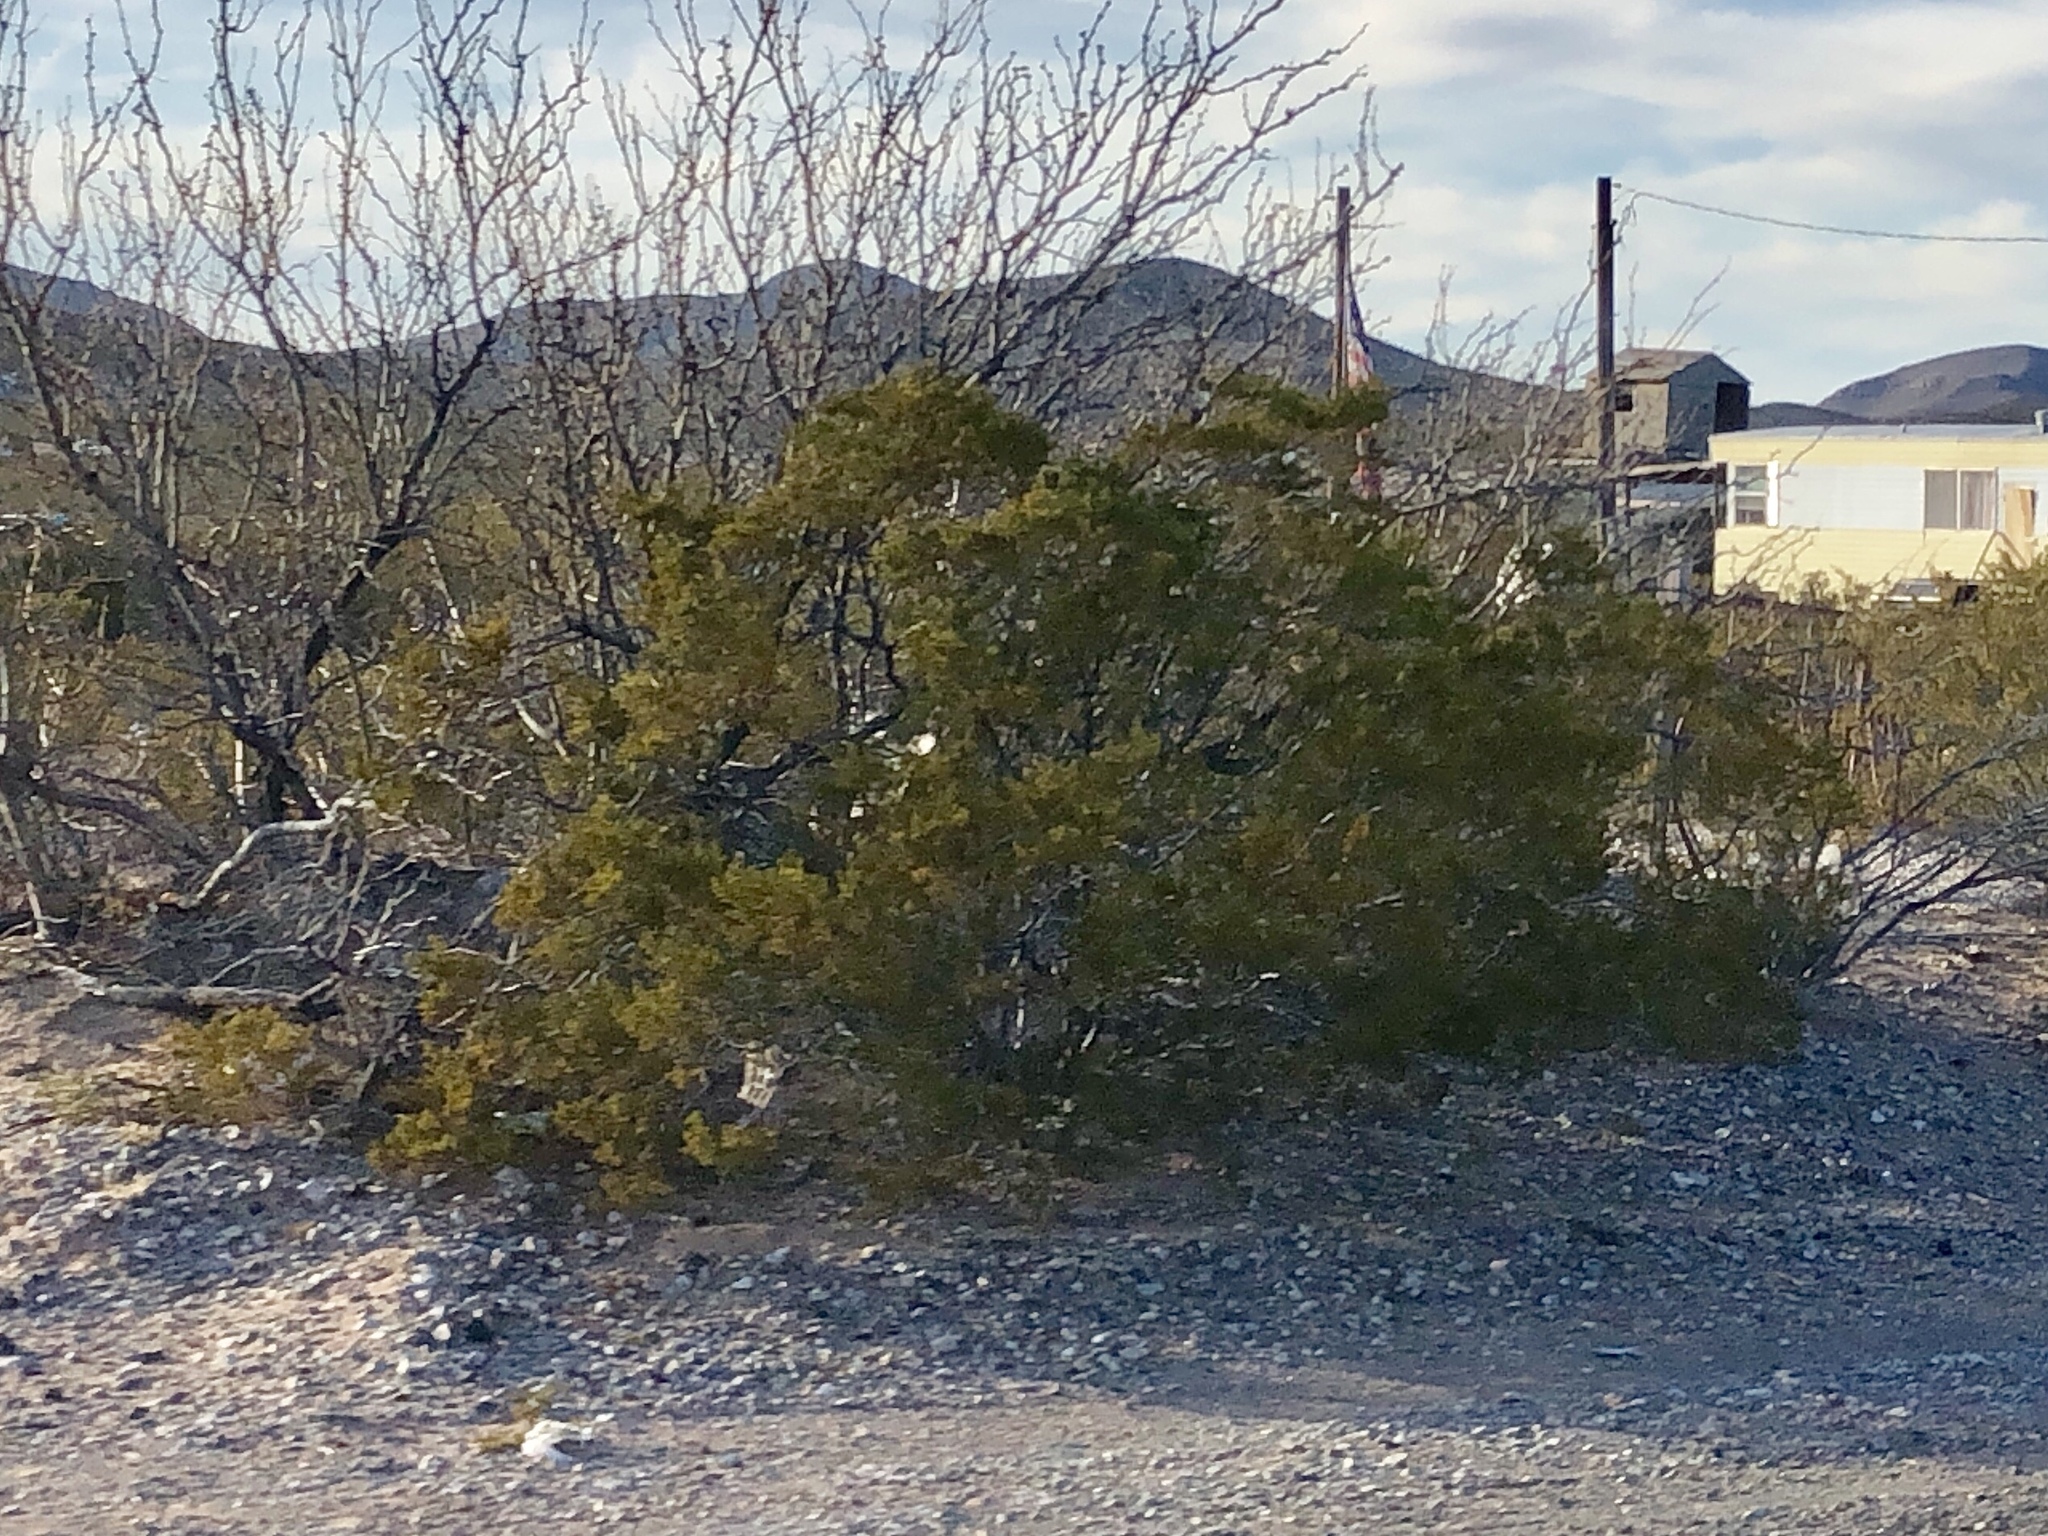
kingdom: Plantae
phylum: Tracheophyta
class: Magnoliopsida
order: Zygophyllales
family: Zygophyllaceae
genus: Larrea
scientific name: Larrea tridentata
